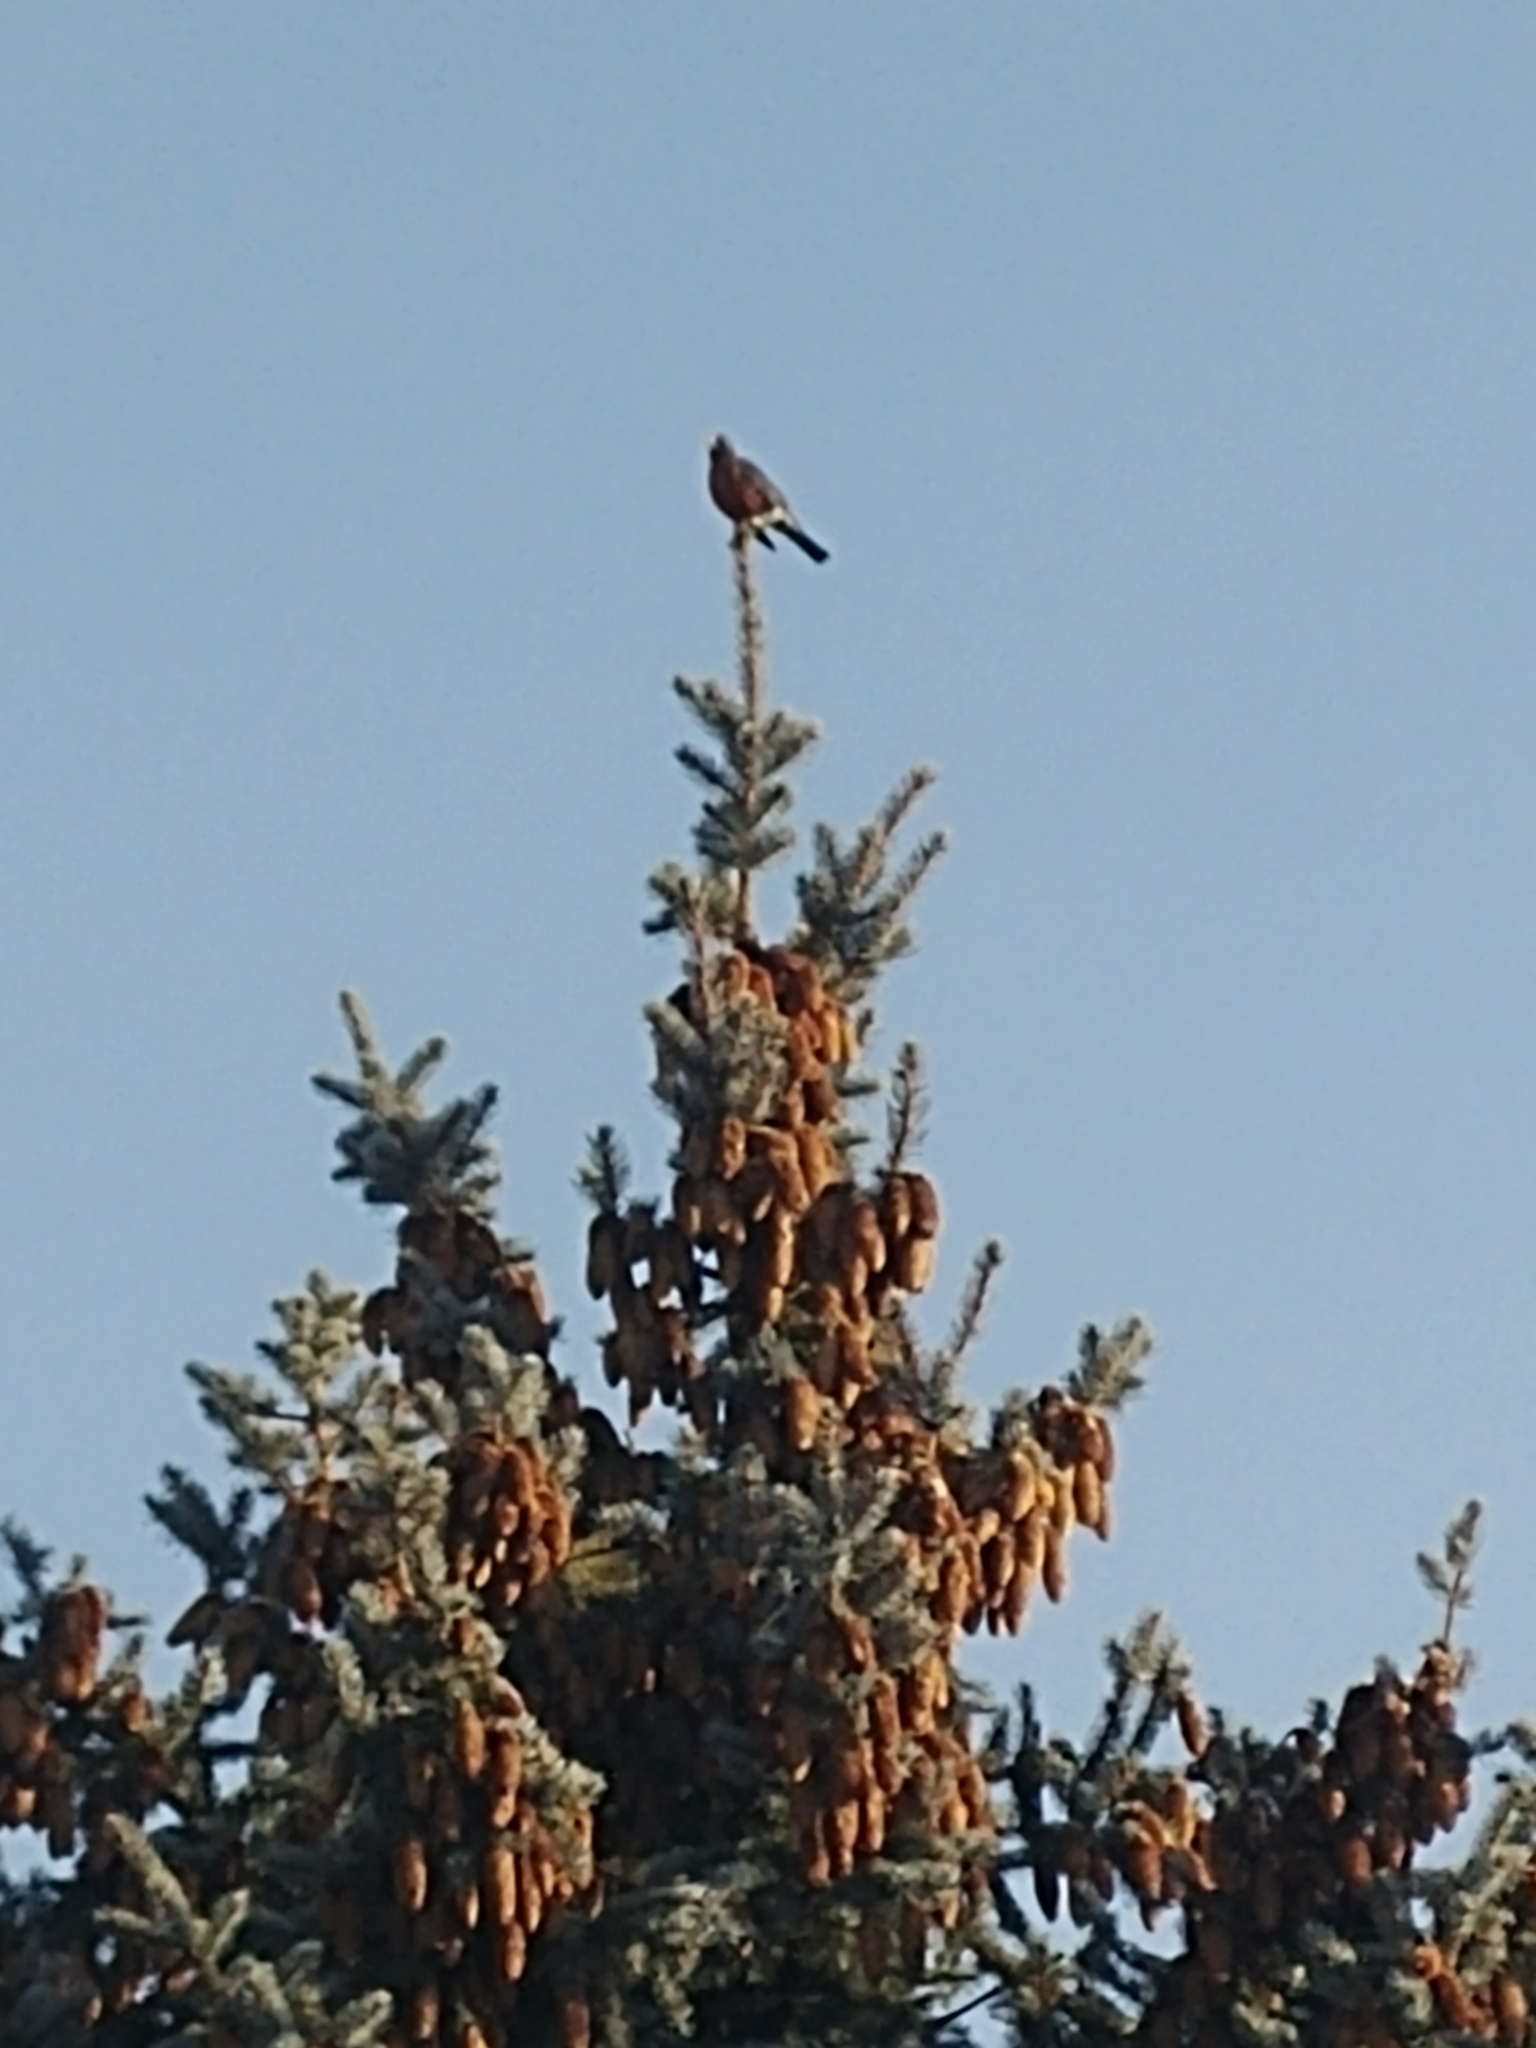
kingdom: Animalia
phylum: Chordata
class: Aves
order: Passeriformes
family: Turdidae
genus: Turdus
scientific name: Turdus migratorius
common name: American robin
